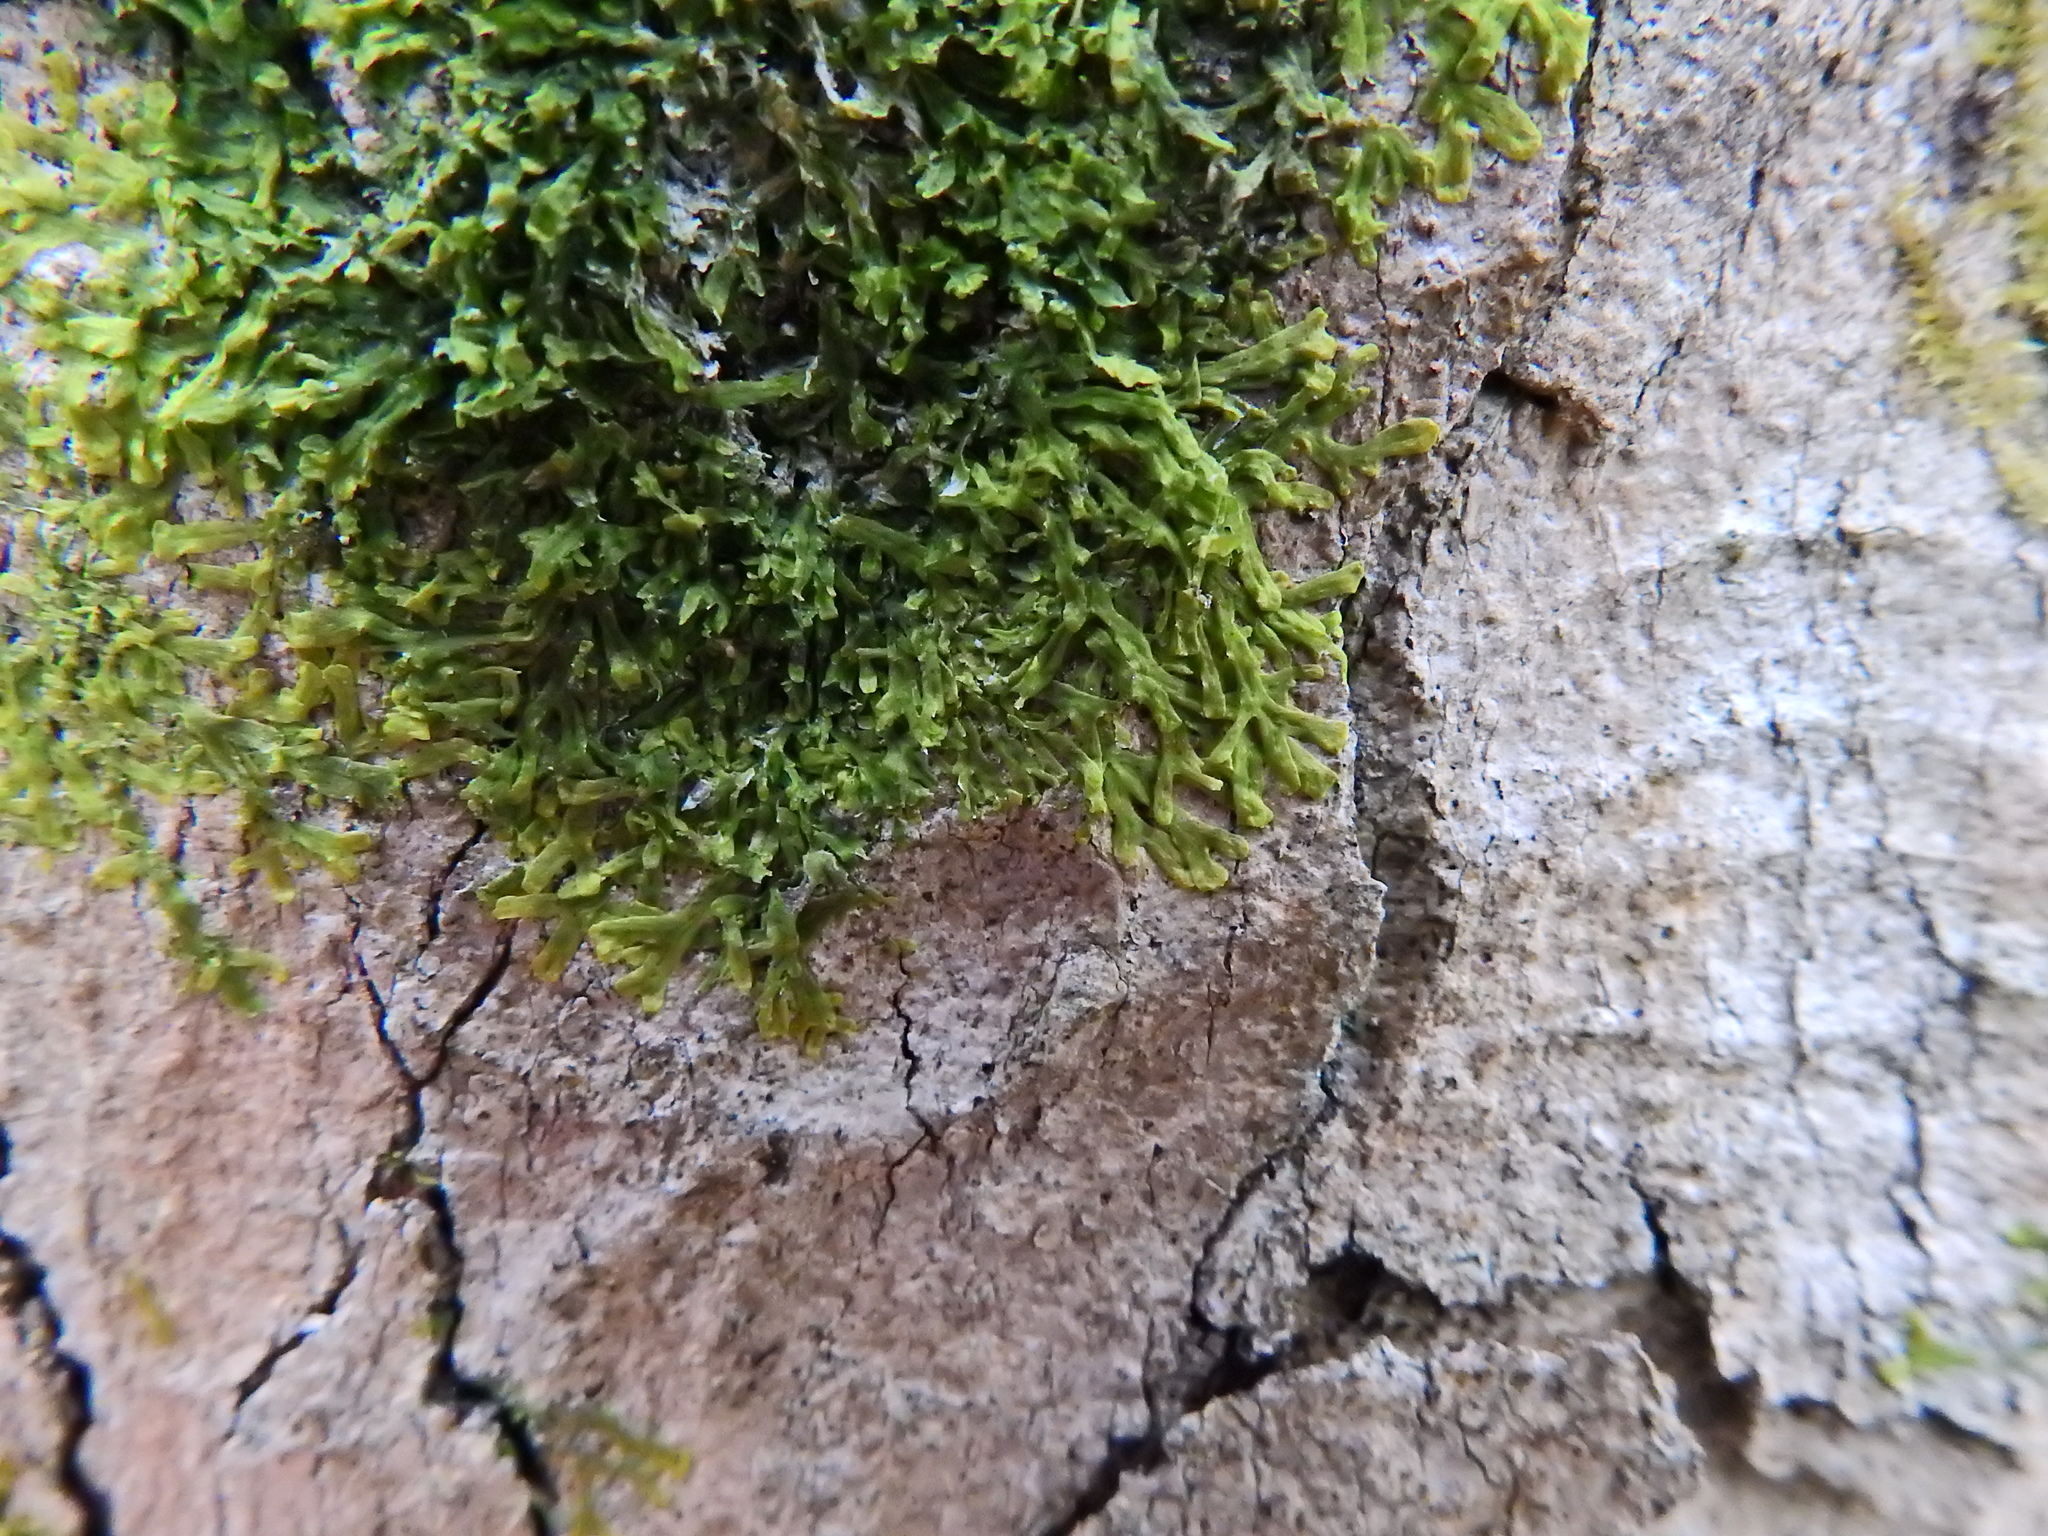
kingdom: Plantae
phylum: Marchantiophyta
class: Jungermanniopsida
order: Metzgeriales
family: Metzgeriaceae
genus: Metzgeria
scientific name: Metzgeria furcata
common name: Forked veilwort
